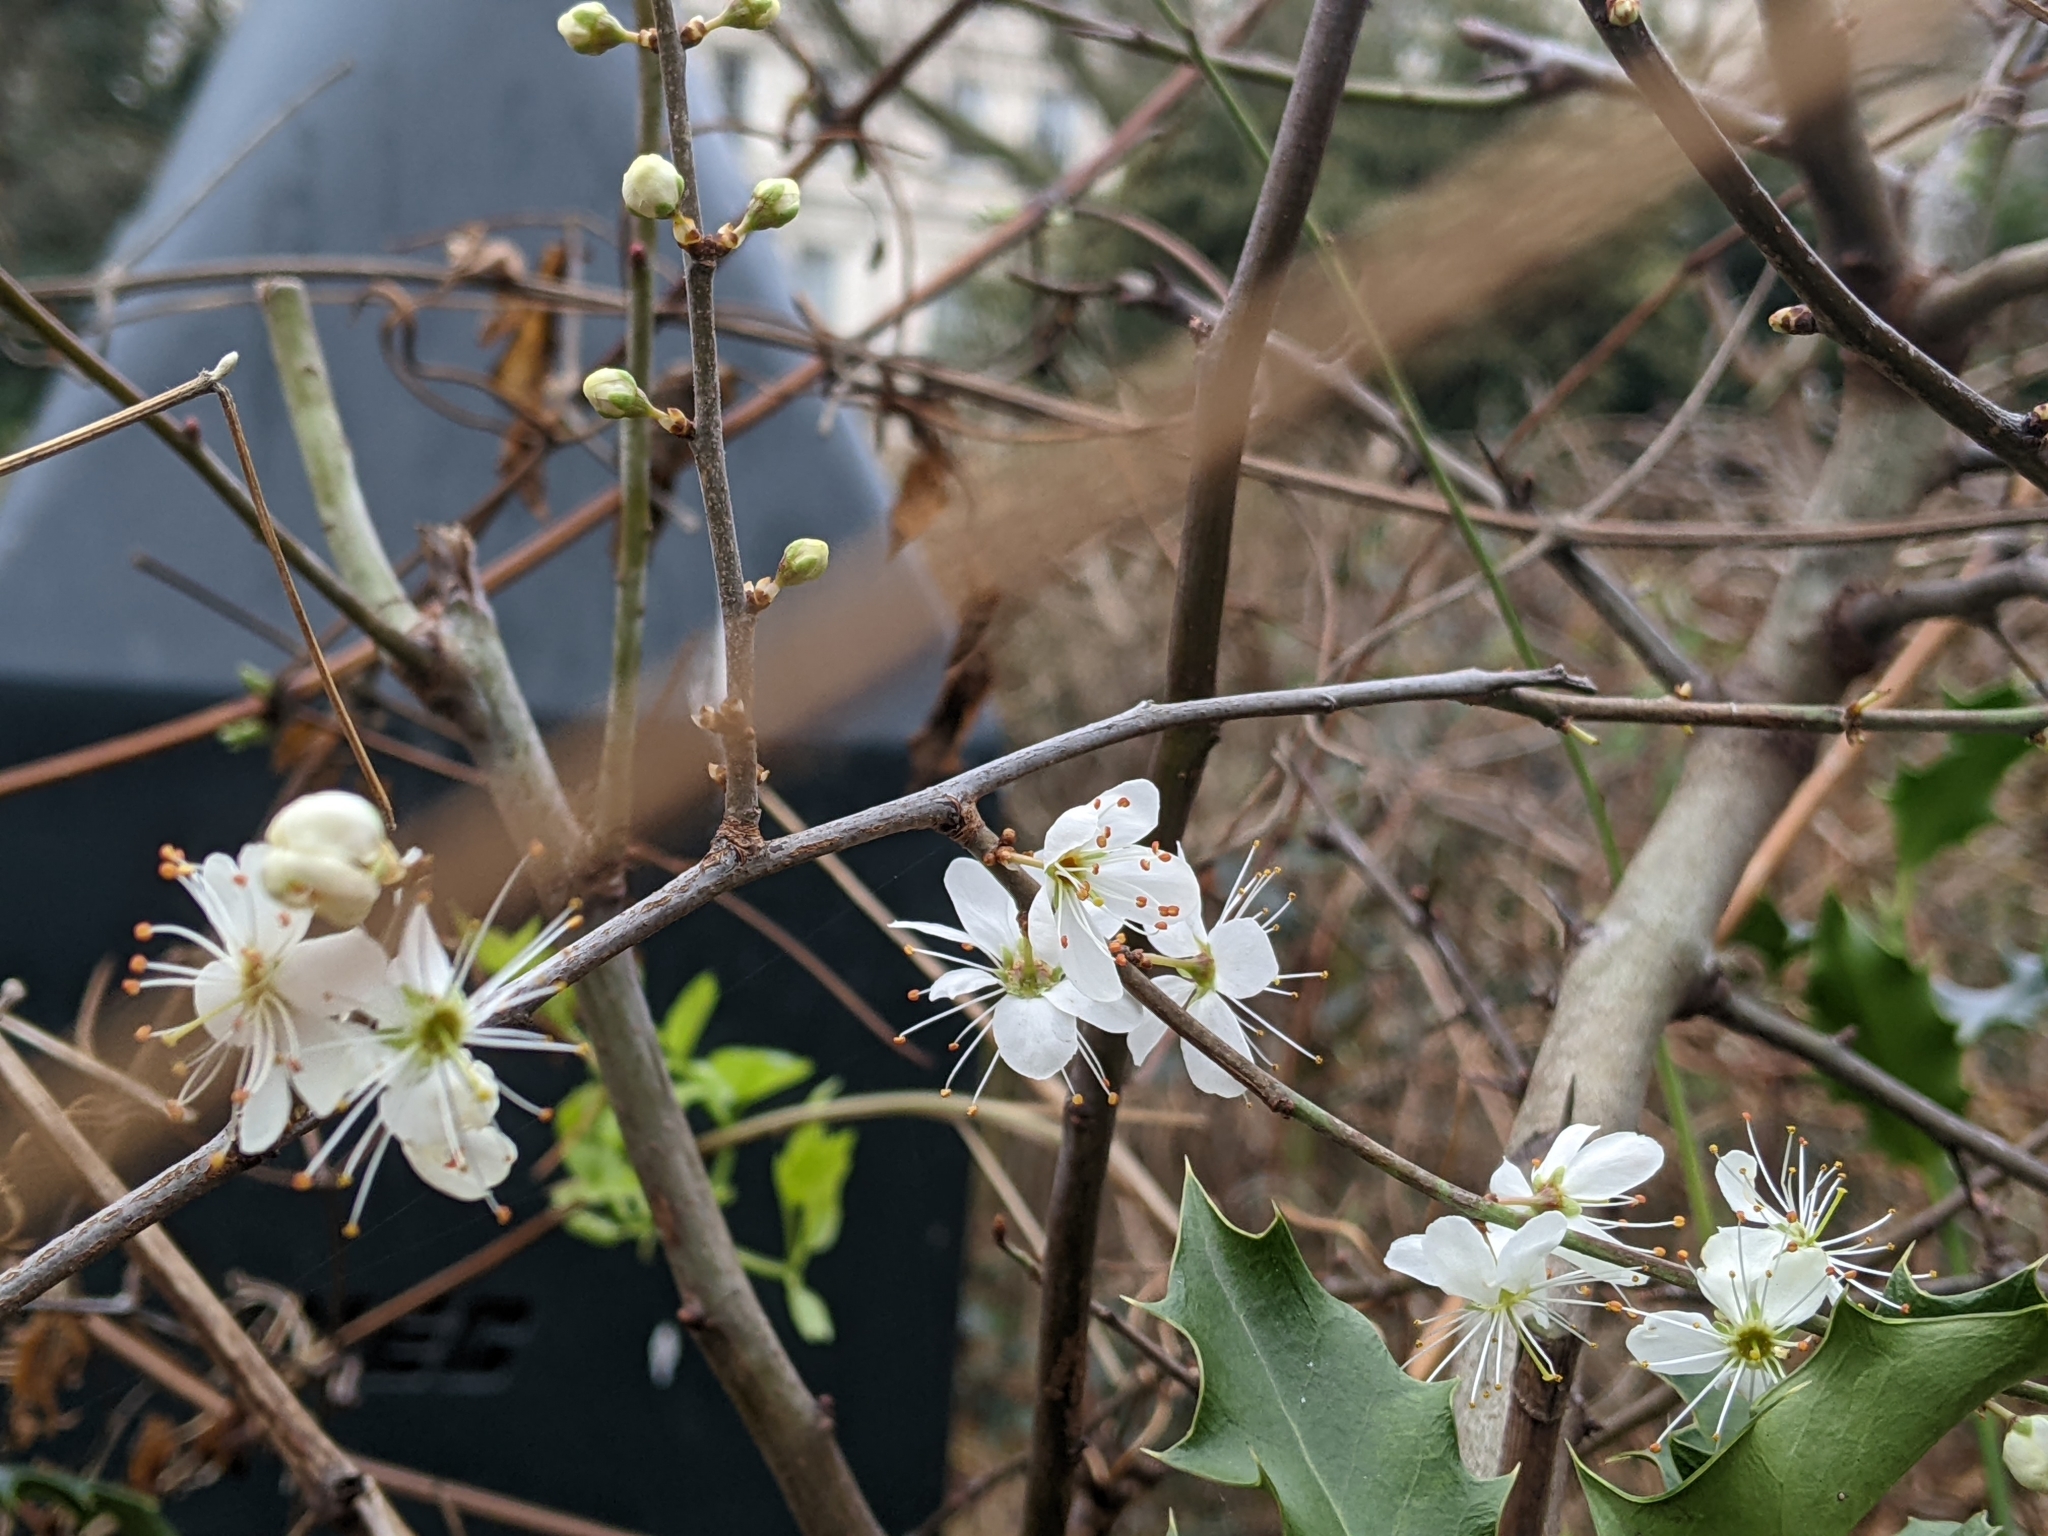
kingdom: Plantae
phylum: Tracheophyta
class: Magnoliopsida
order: Rosales
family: Rosaceae
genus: Prunus
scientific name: Prunus spinosa
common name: Blackthorn
